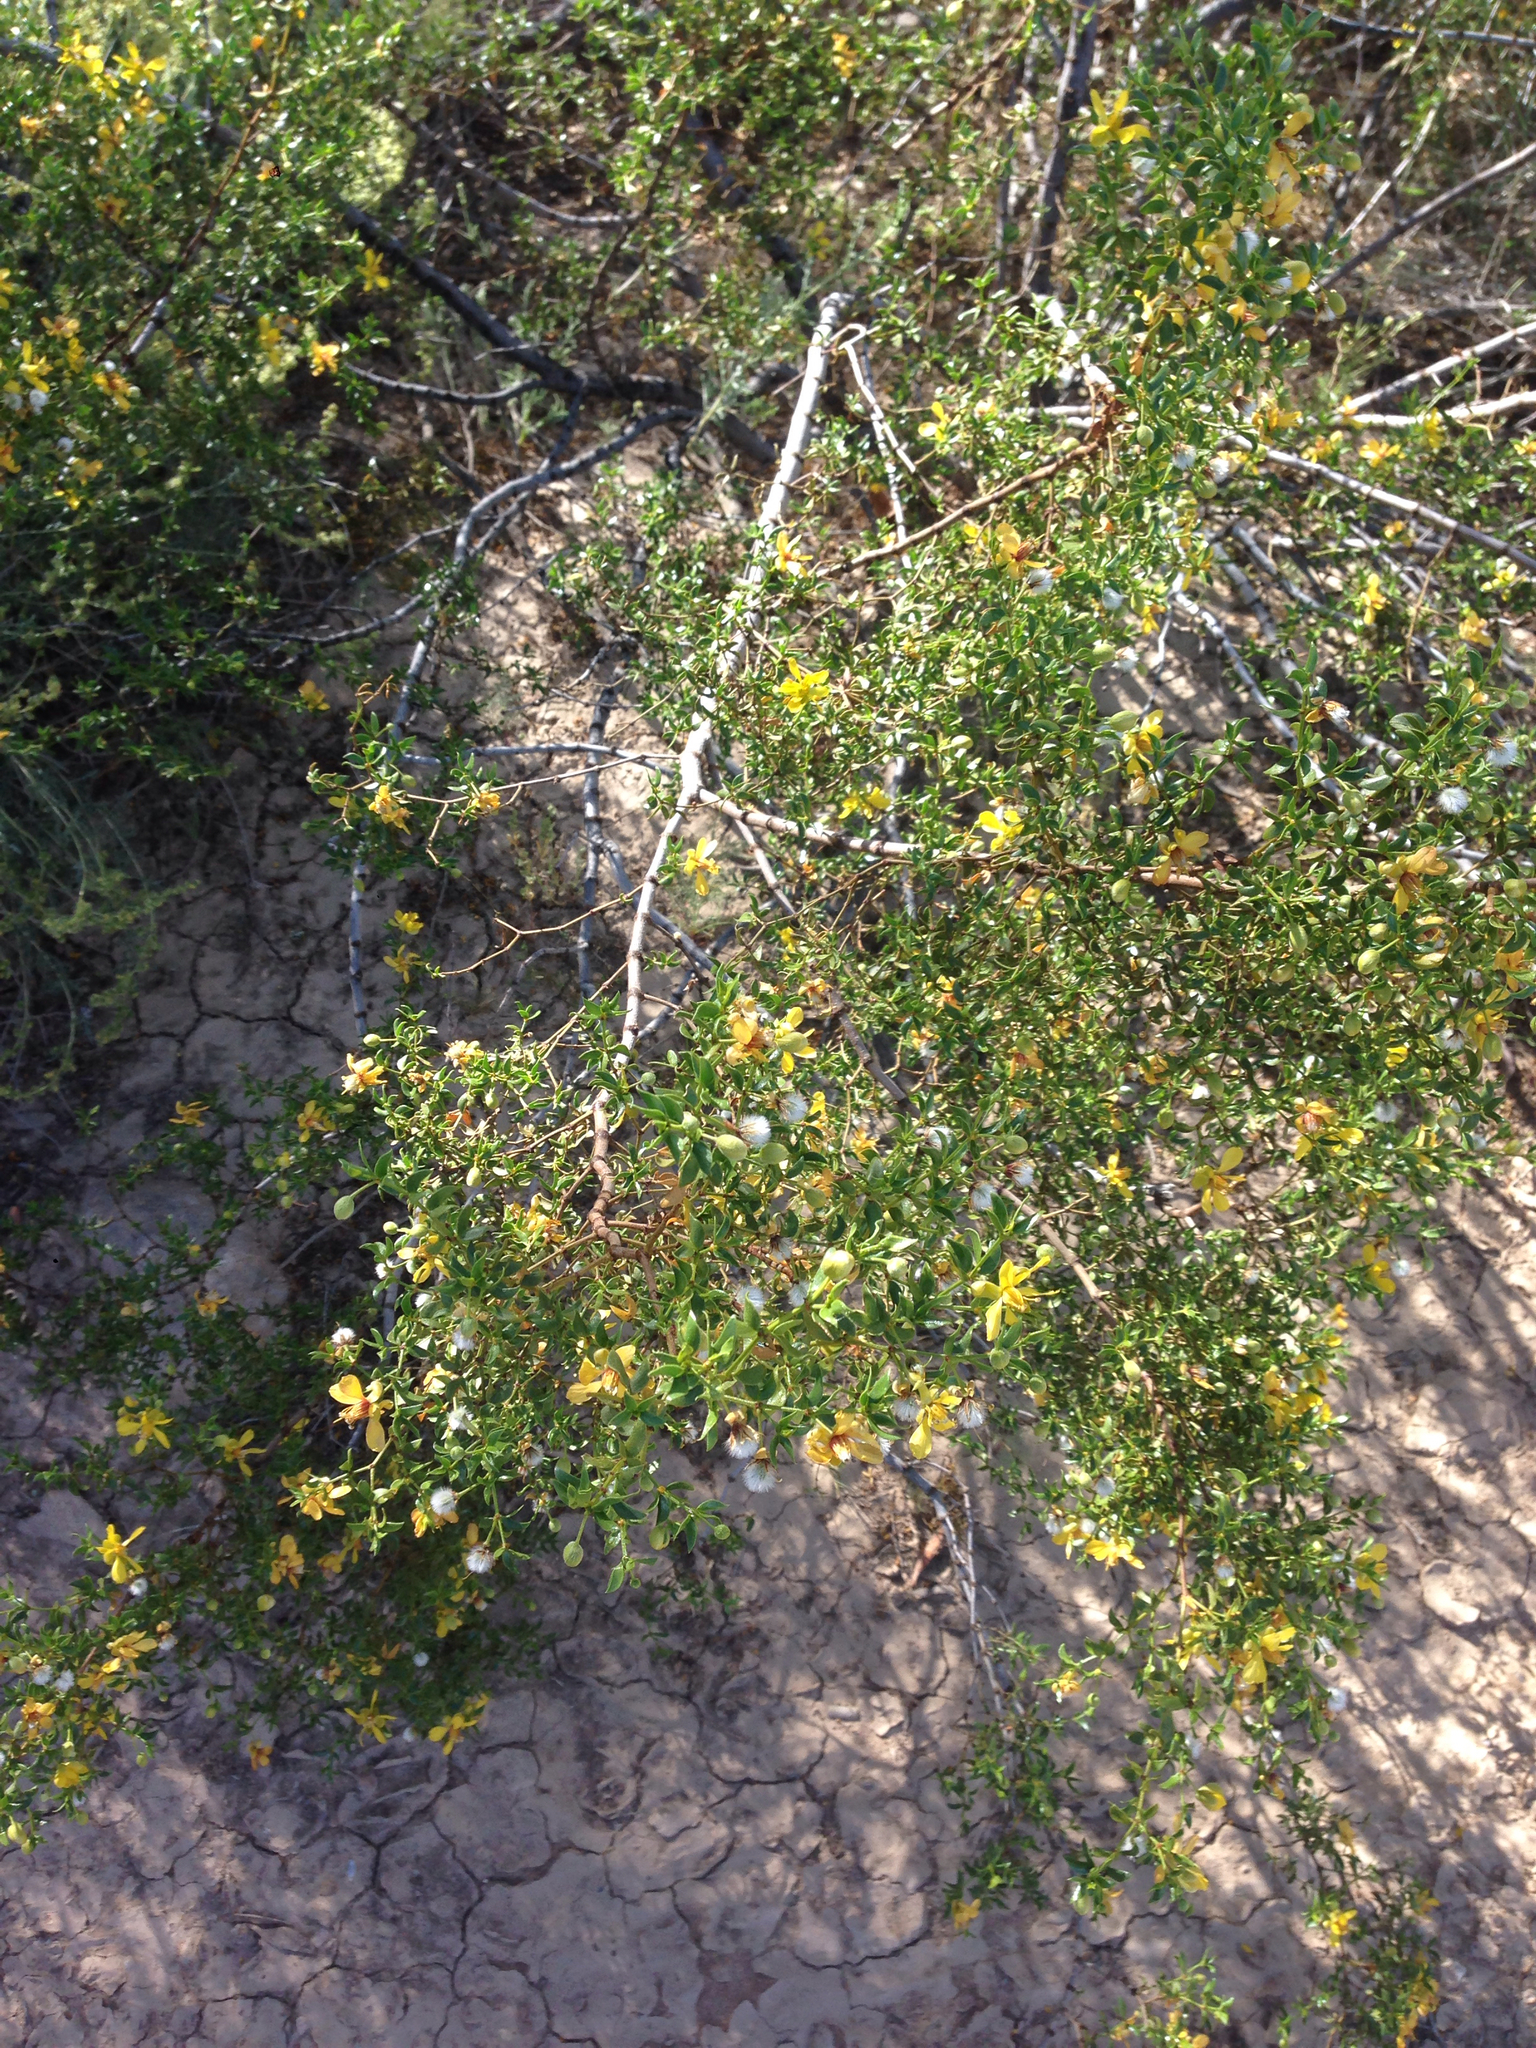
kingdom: Plantae
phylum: Tracheophyta
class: Magnoliopsida
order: Zygophyllales
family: Zygophyllaceae
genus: Larrea
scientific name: Larrea tridentata
